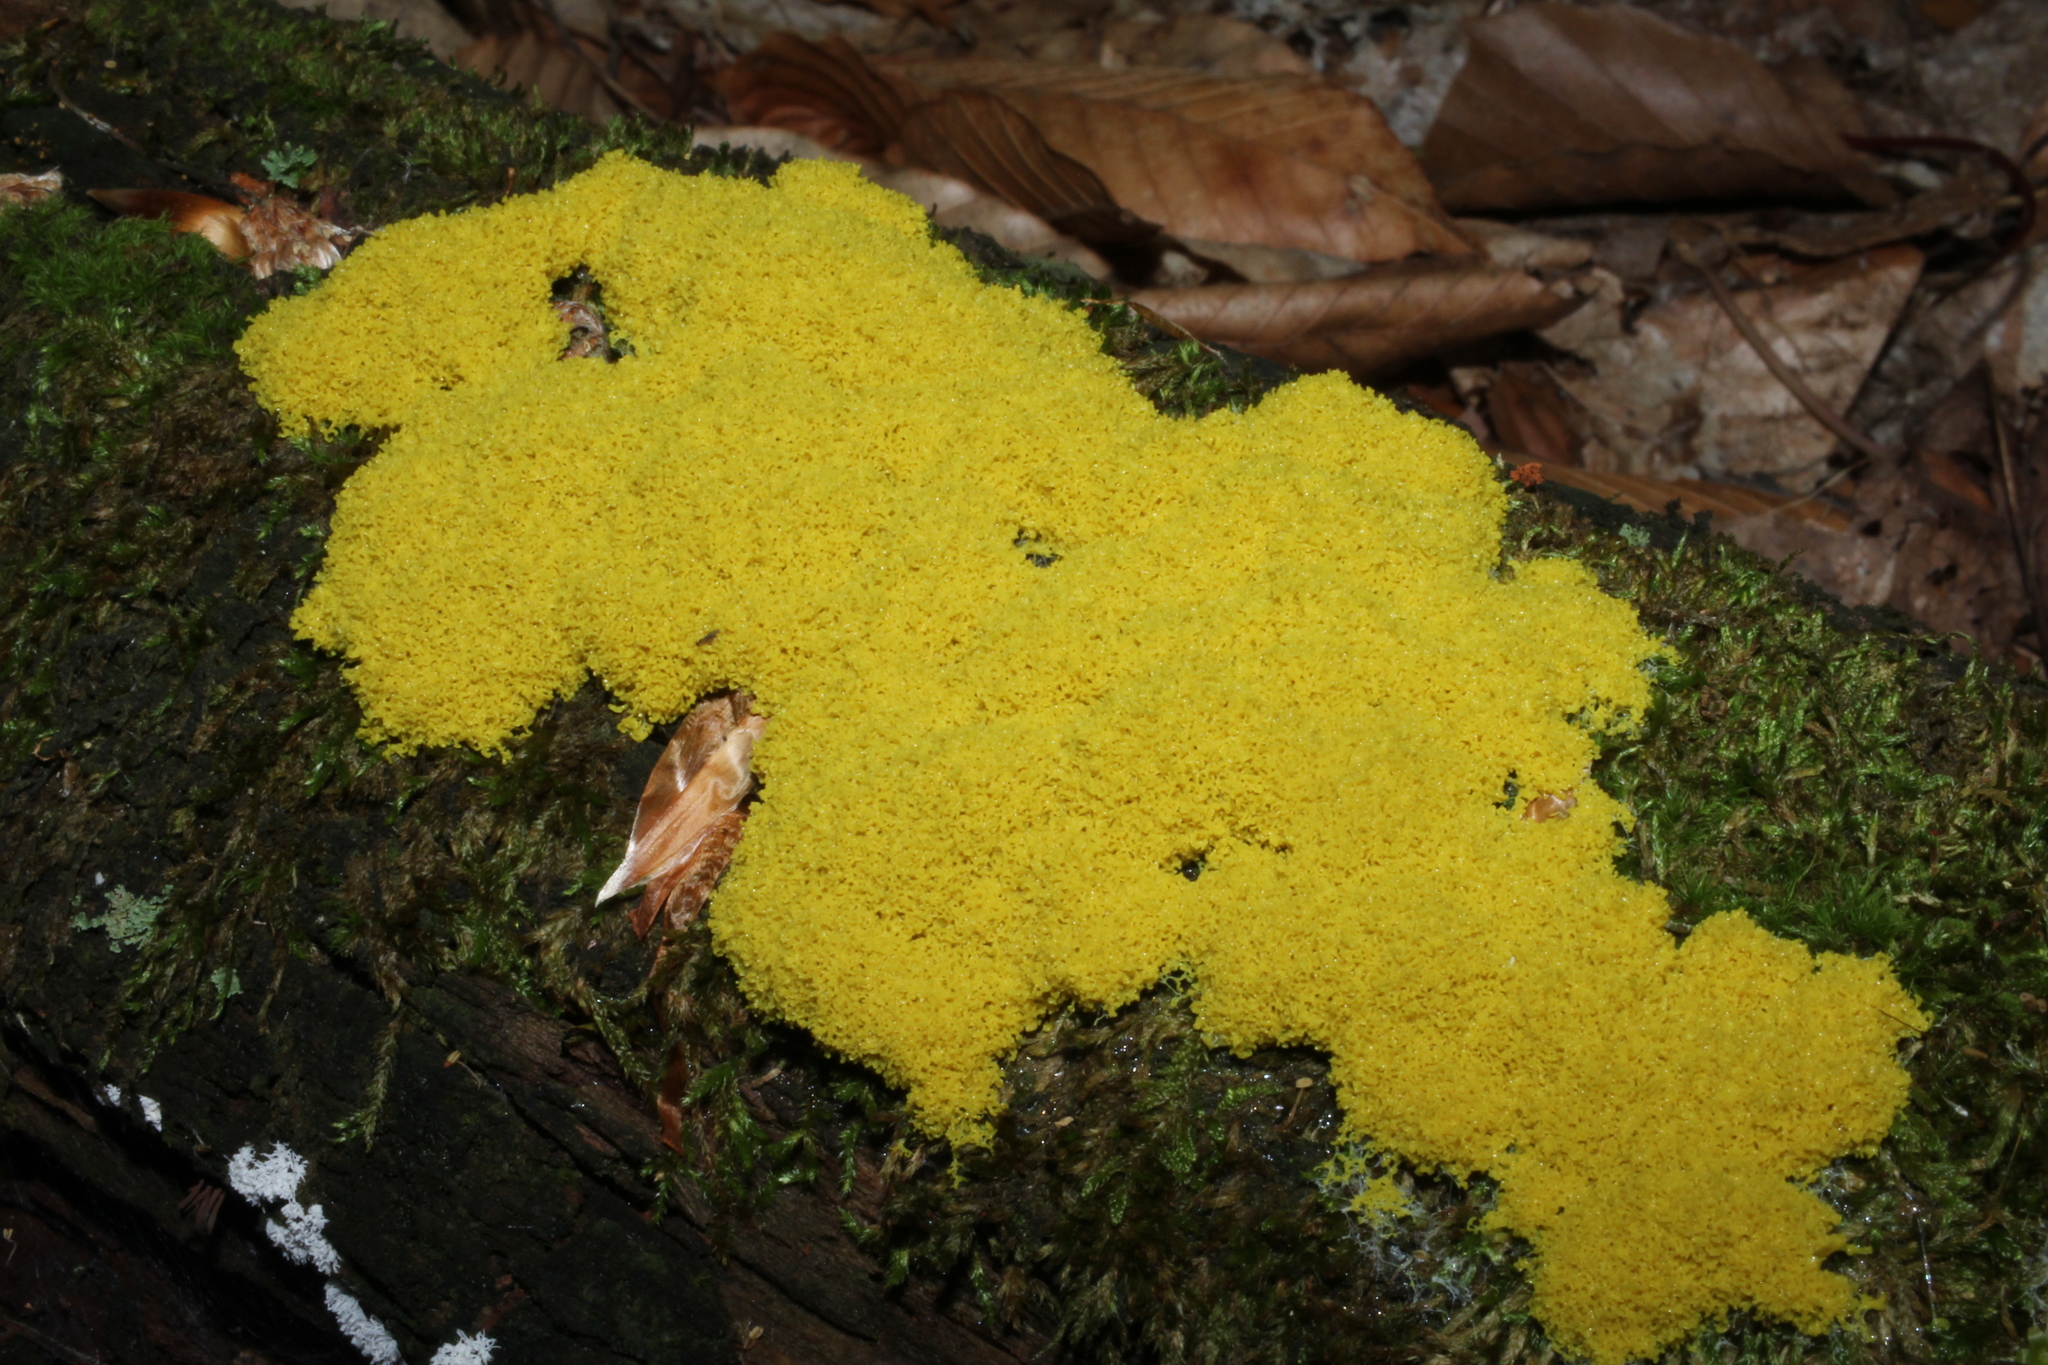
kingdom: Protozoa
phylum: Mycetozoa
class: Myxomycetes
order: Physarales
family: Physaraceae
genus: Fuligo
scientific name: Fuligo septica
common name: Dog vomit slime mold
